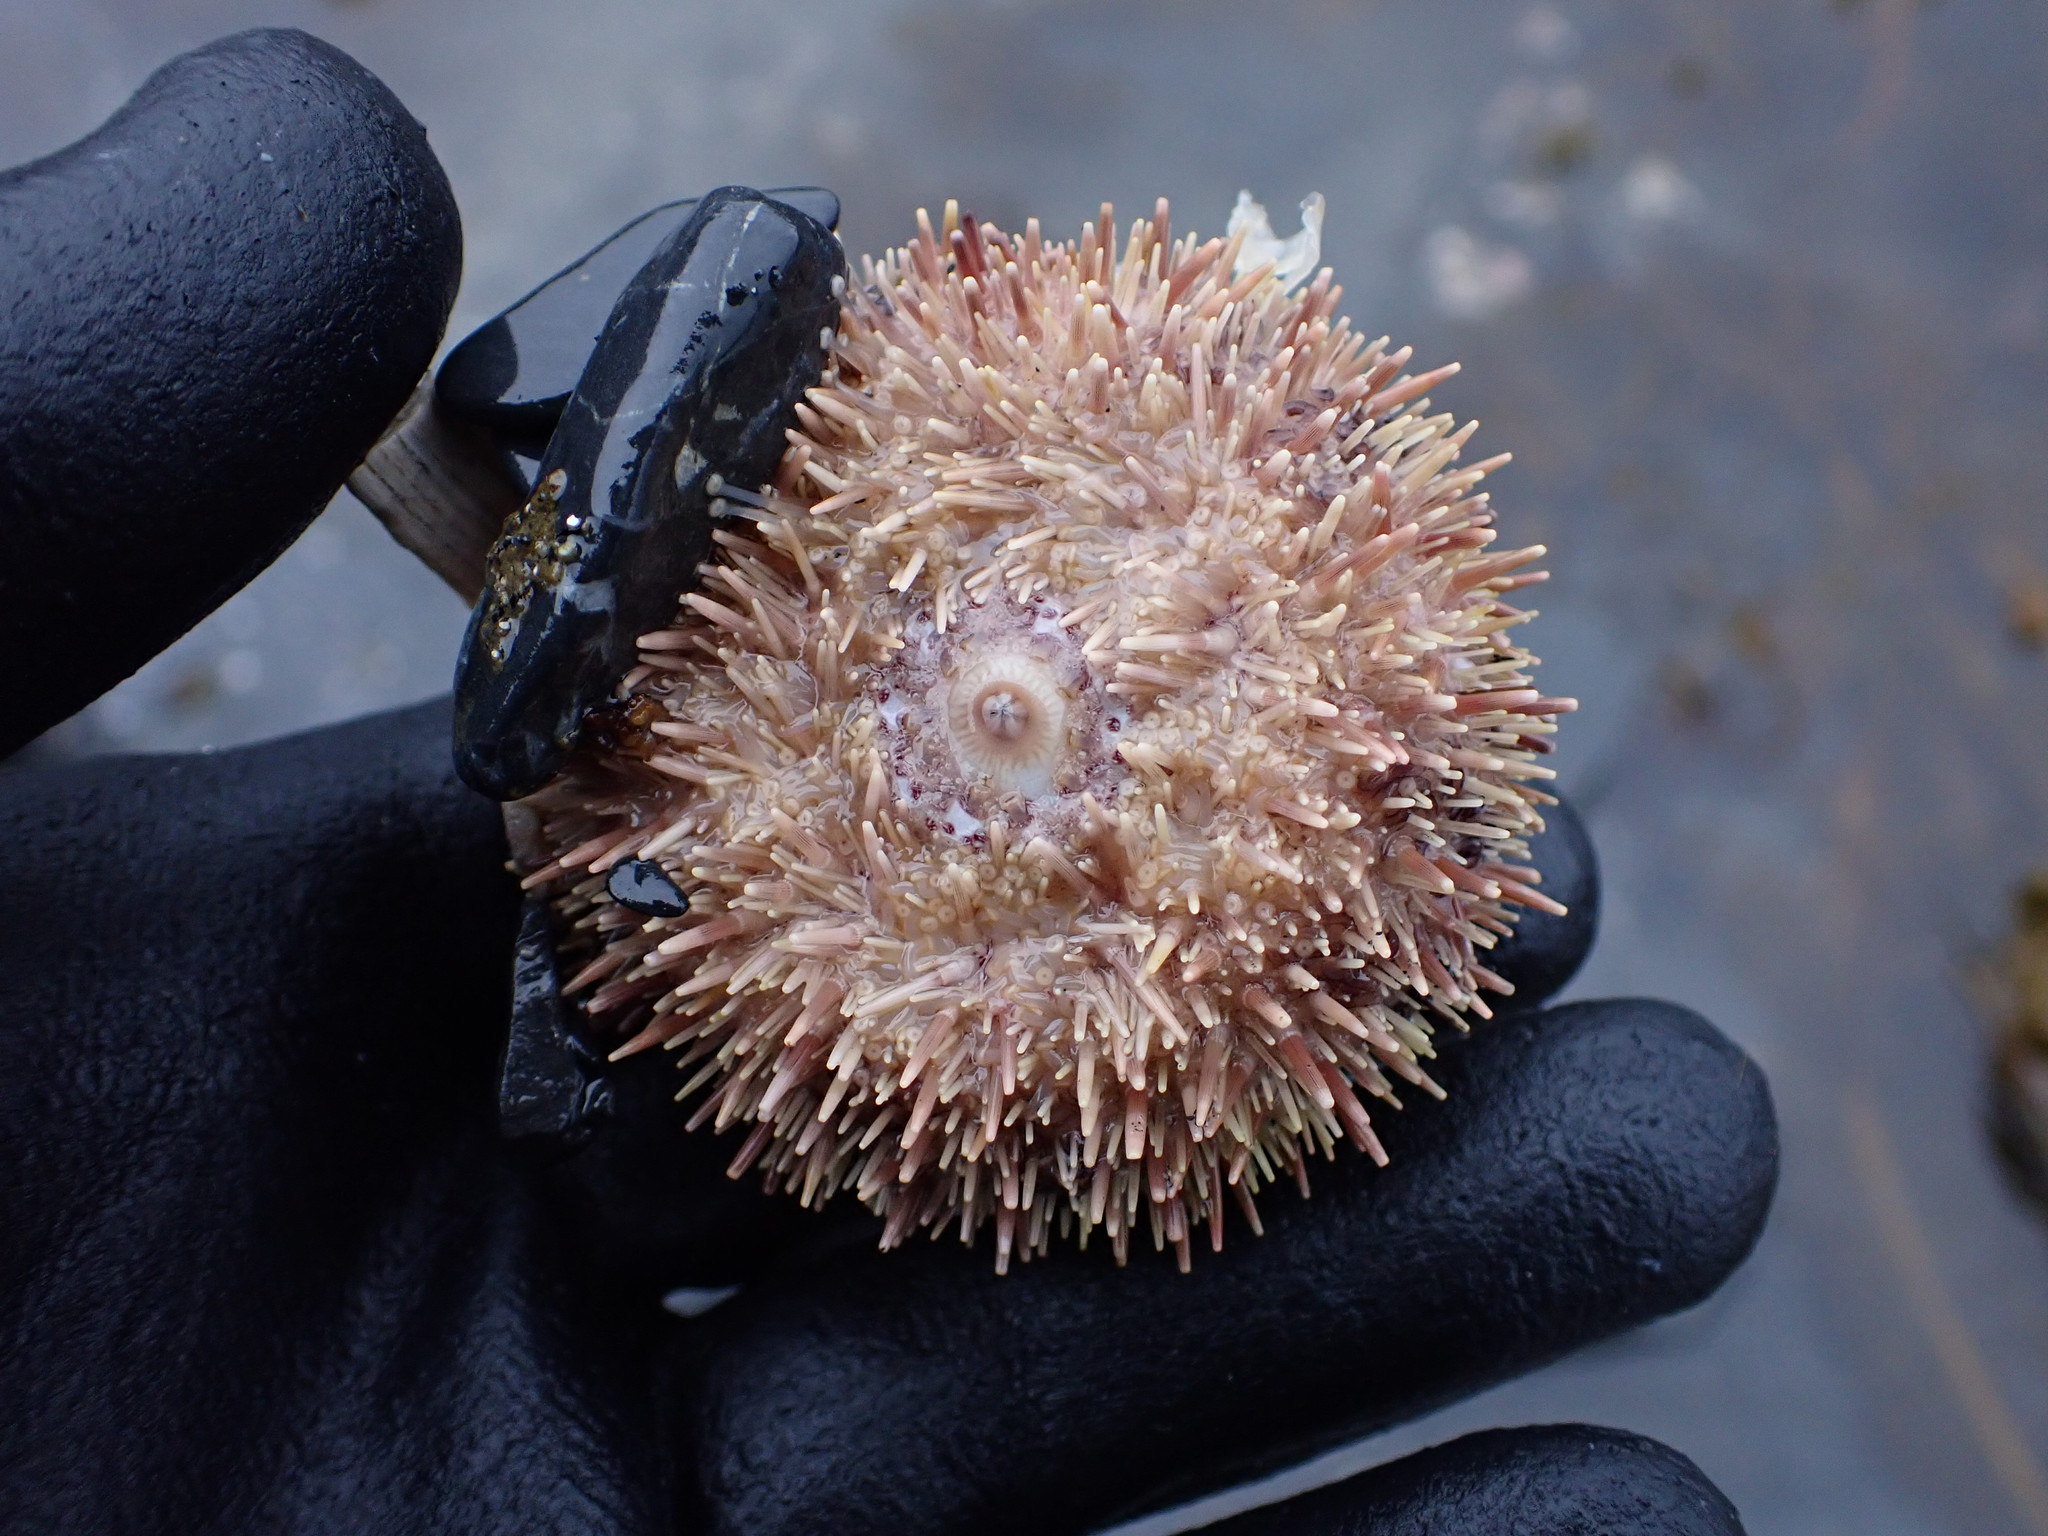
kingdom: Animalia
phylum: Echinodermata
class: Echinoidea
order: Camarodonta
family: Strongylocentrotidae
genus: Strongylocentrotus
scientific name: Strongylocentrotus droebachiensis
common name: Northern sea urchin
